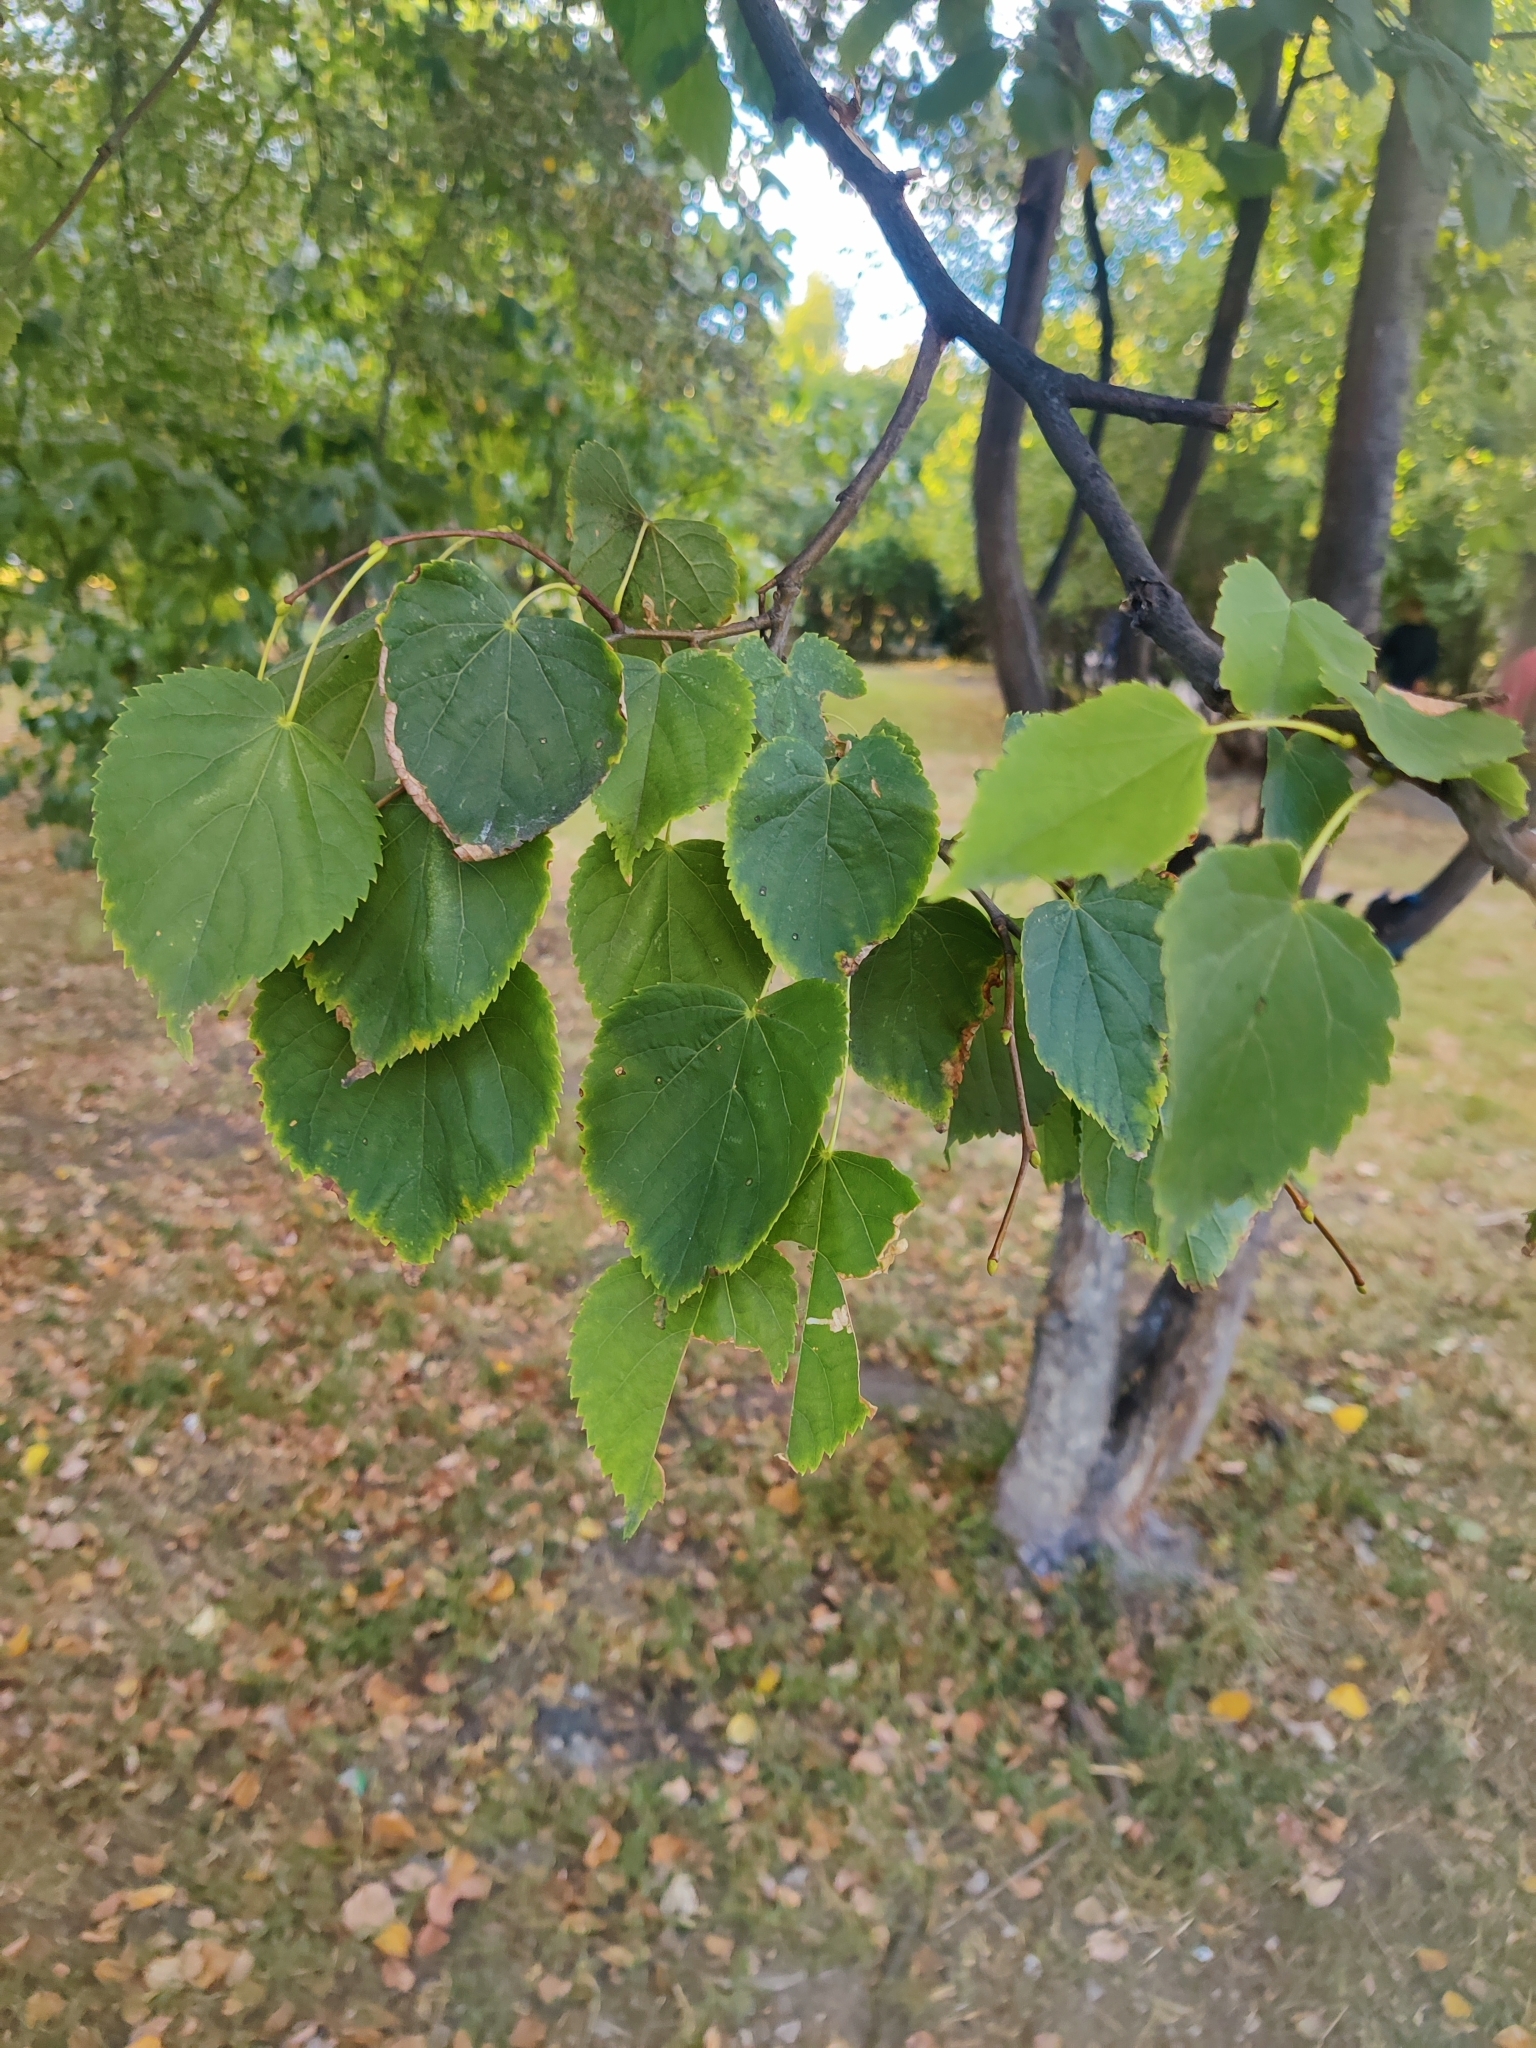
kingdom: Plantae
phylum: Tracheophyta
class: Magnoliopsida
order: Malvales
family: Malvaceae
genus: Tilia
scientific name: Tilia cordata
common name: Small-leaved lime
